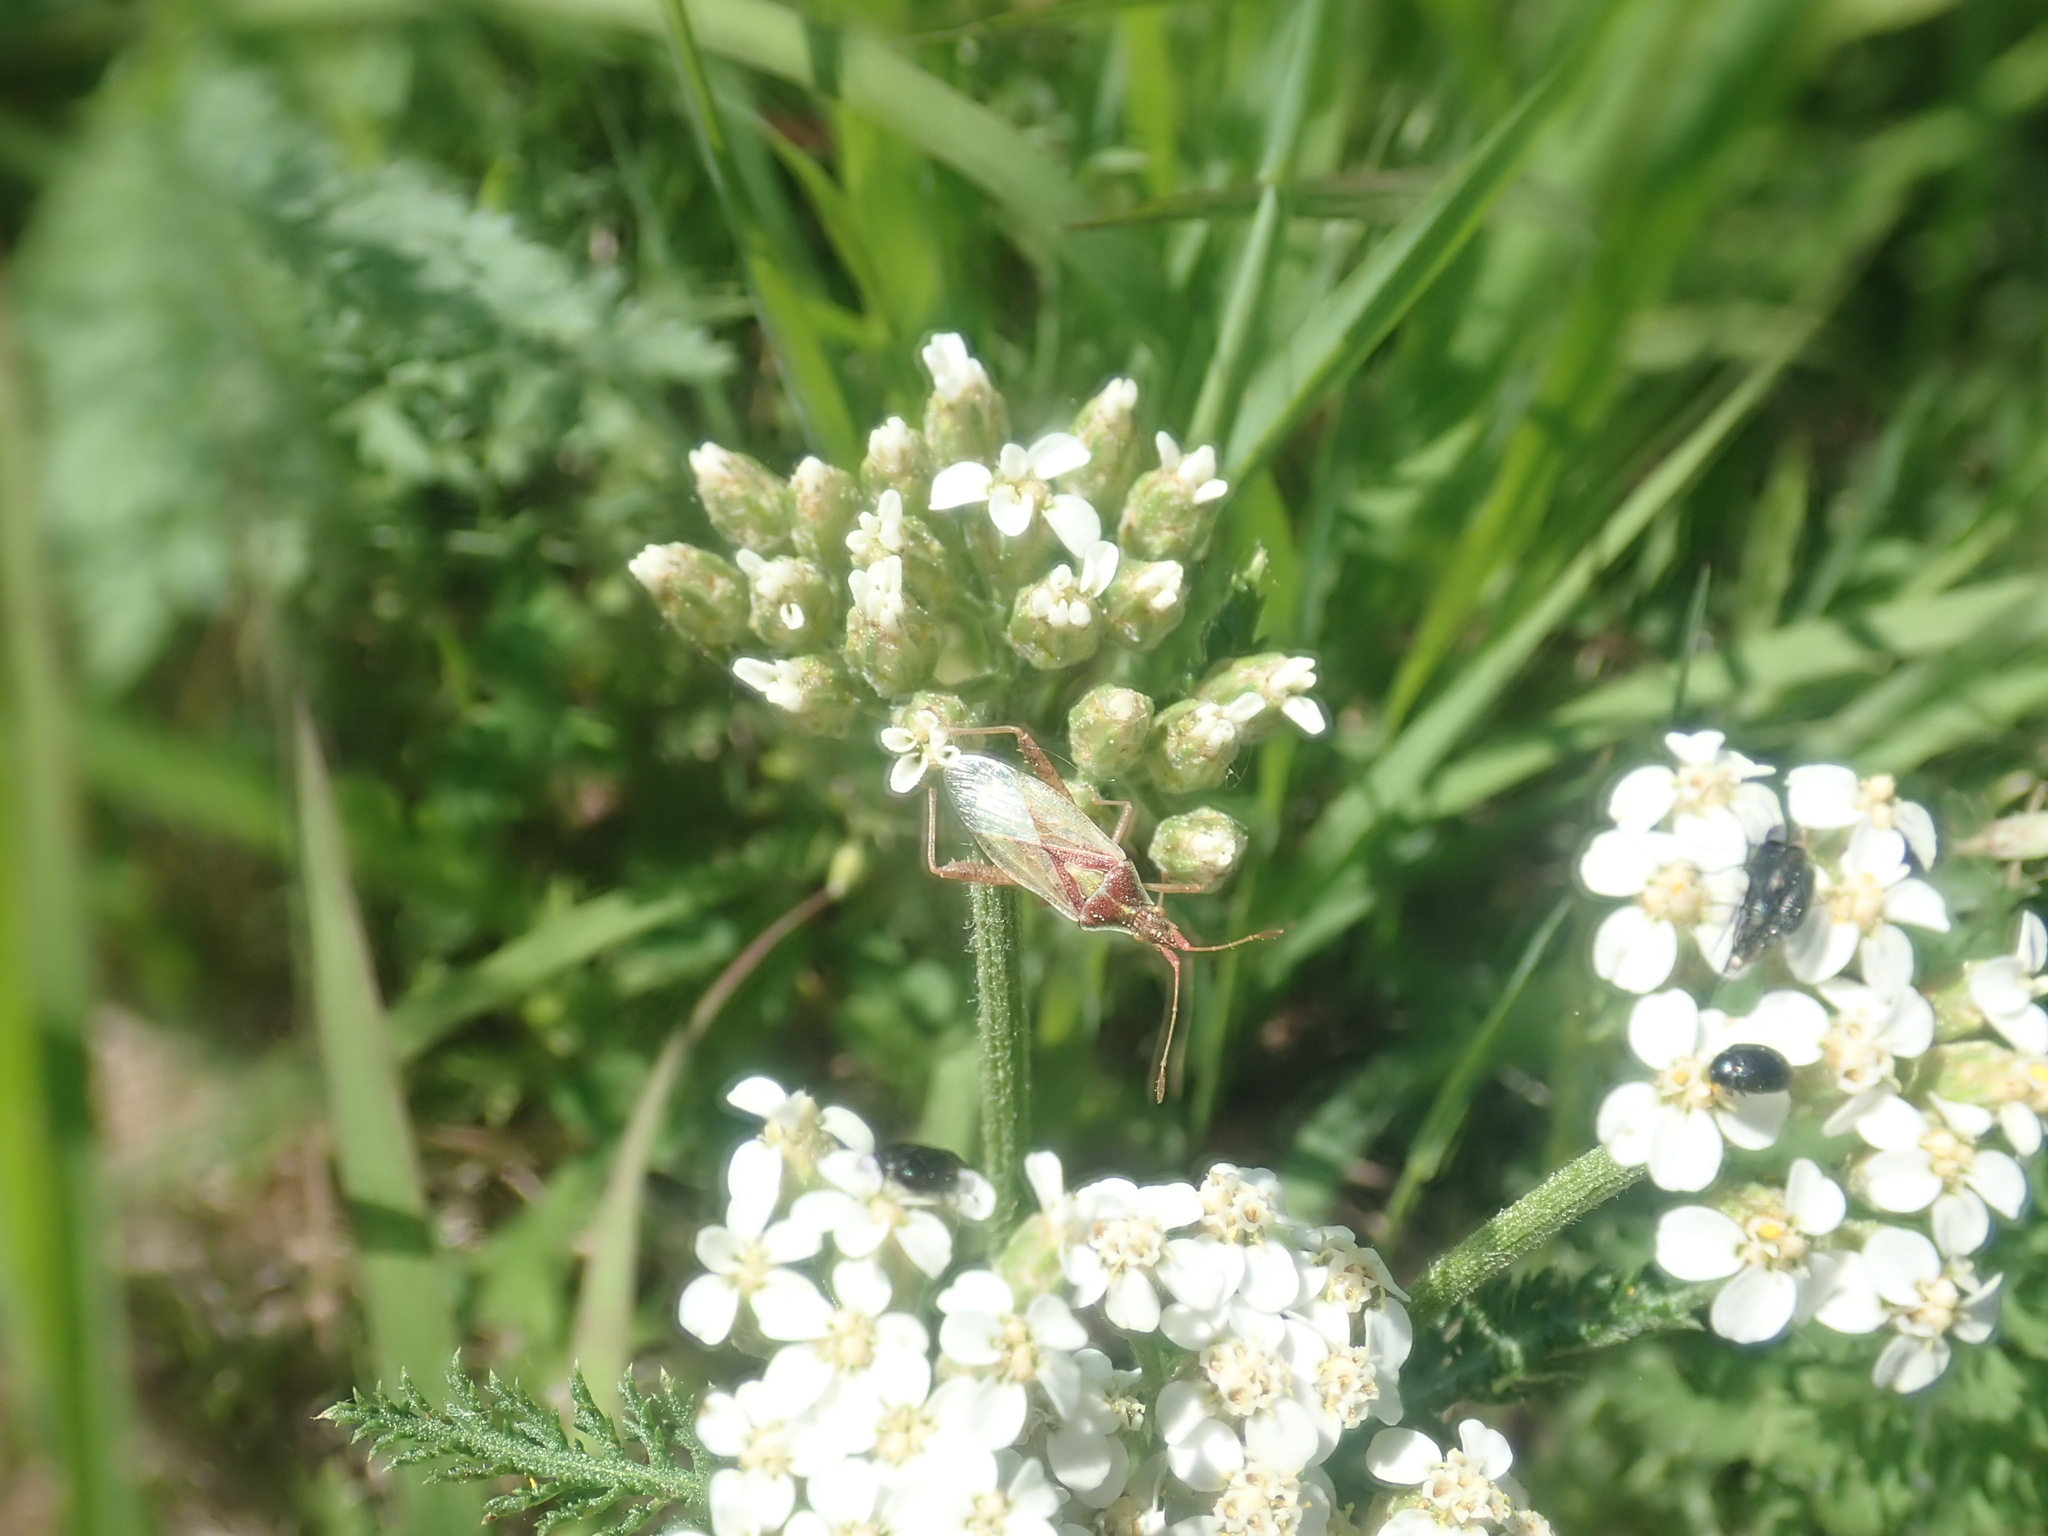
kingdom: Animalia
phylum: Arthropoda
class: Insecta
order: Hemiptera
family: Rhopalidae
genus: Harmostes
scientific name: Harmostes reflexulus
